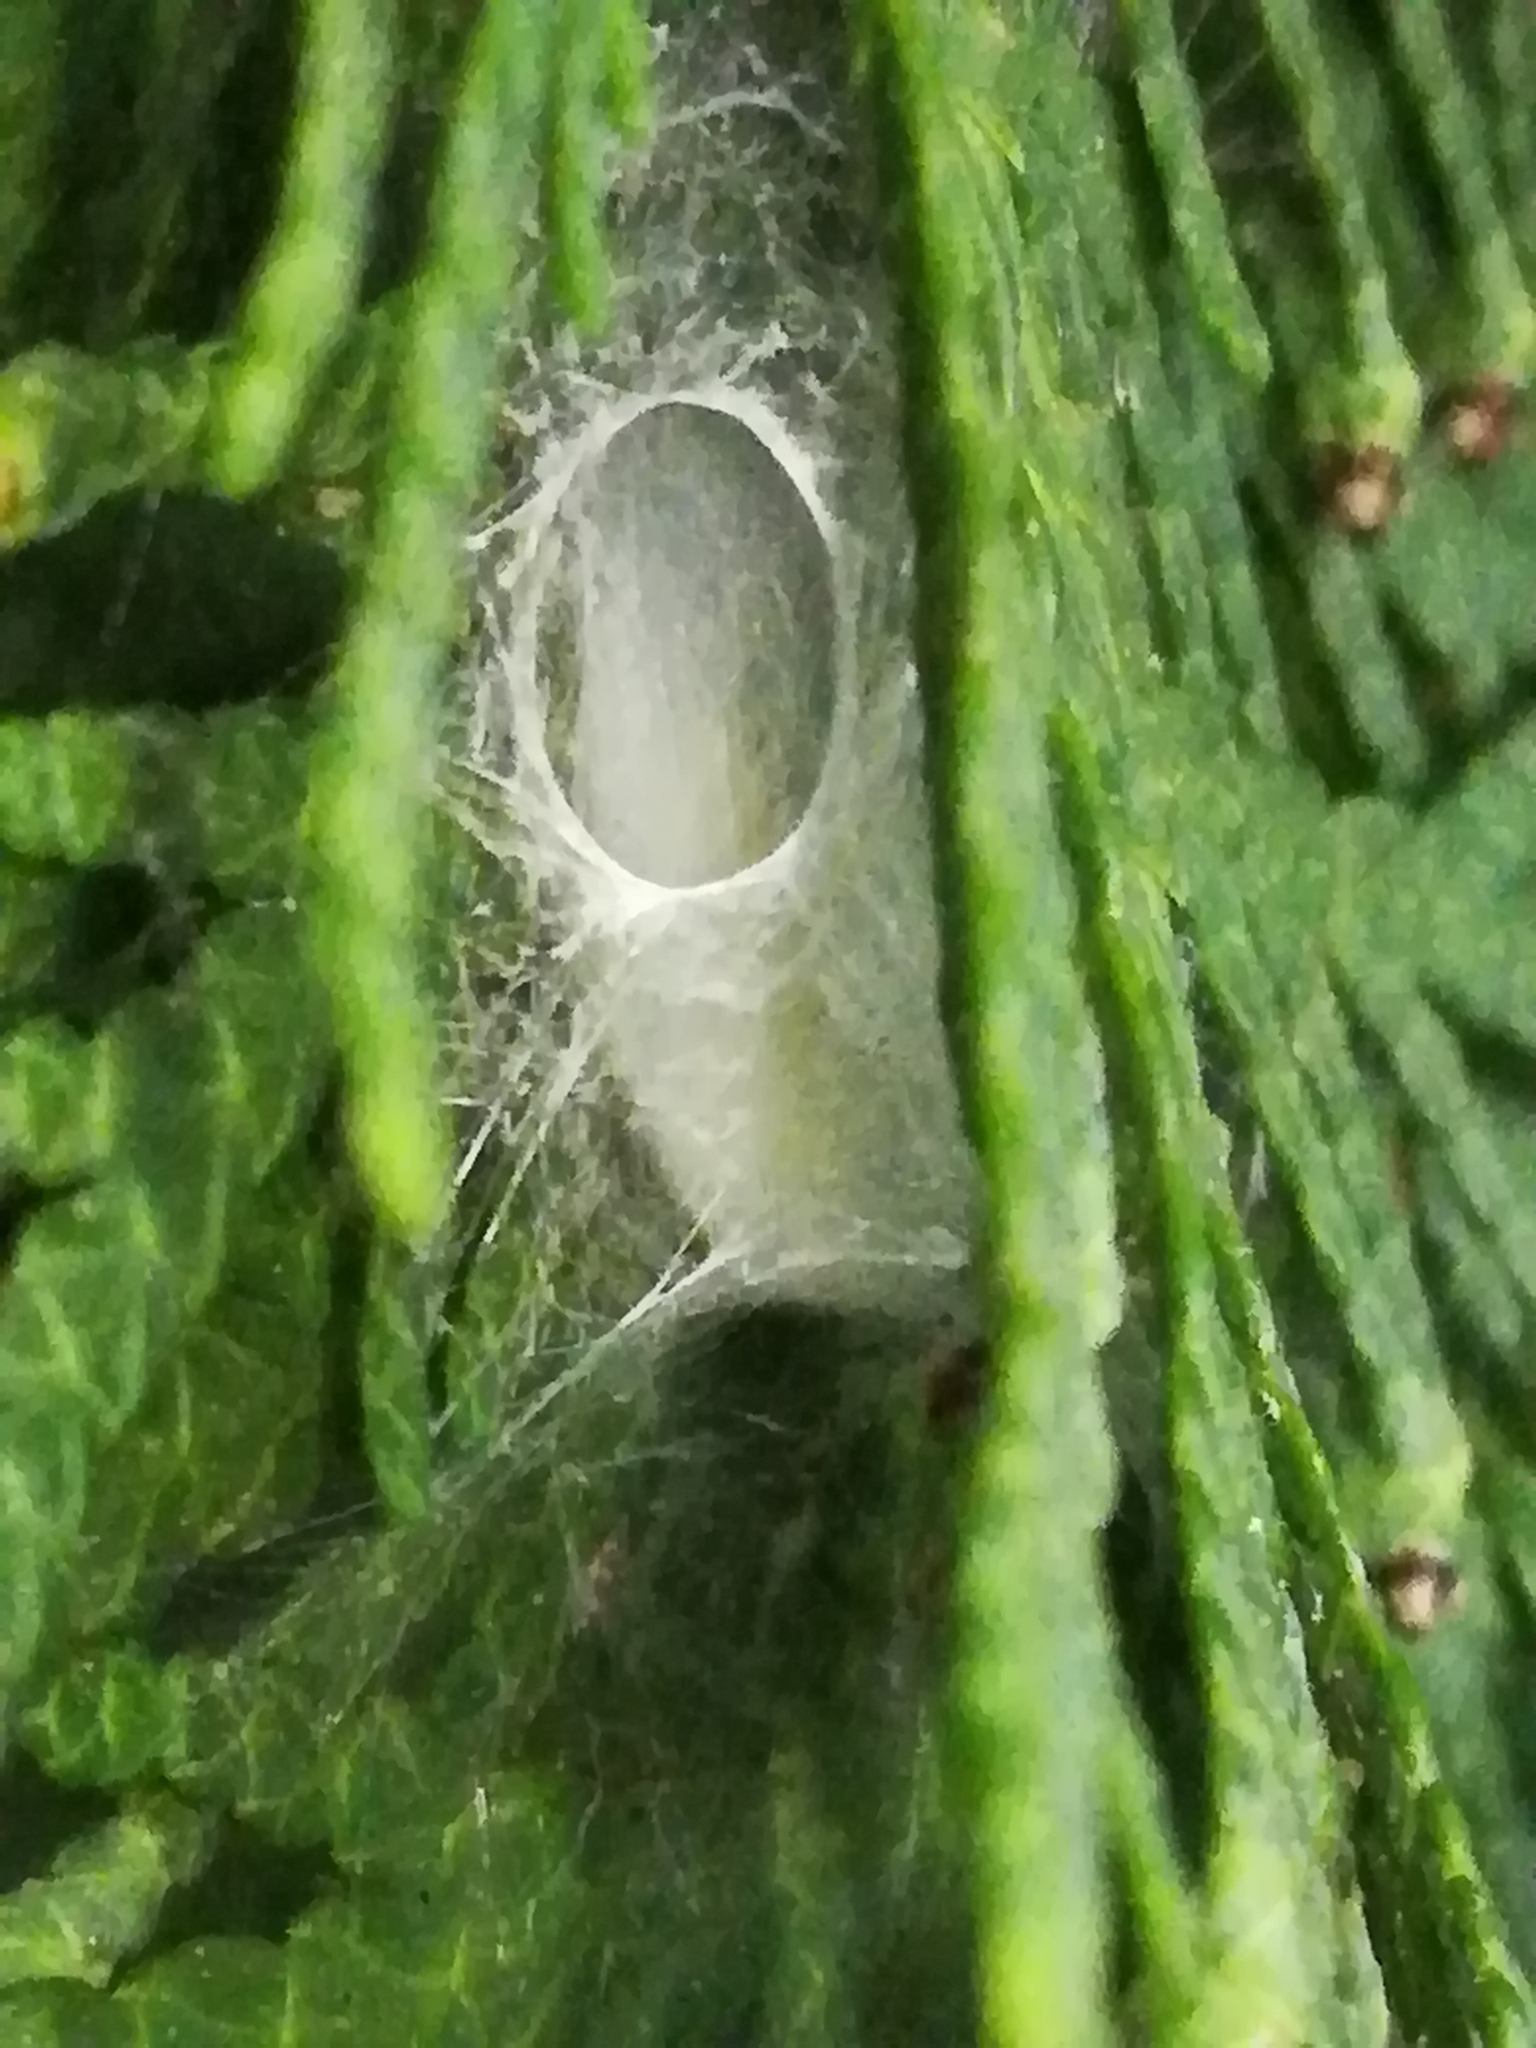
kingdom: Animalia
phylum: Arthropoda
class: Arachnida
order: Araneae
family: Salticidae
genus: Macaroeris
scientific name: Macaroeris nidicolens
